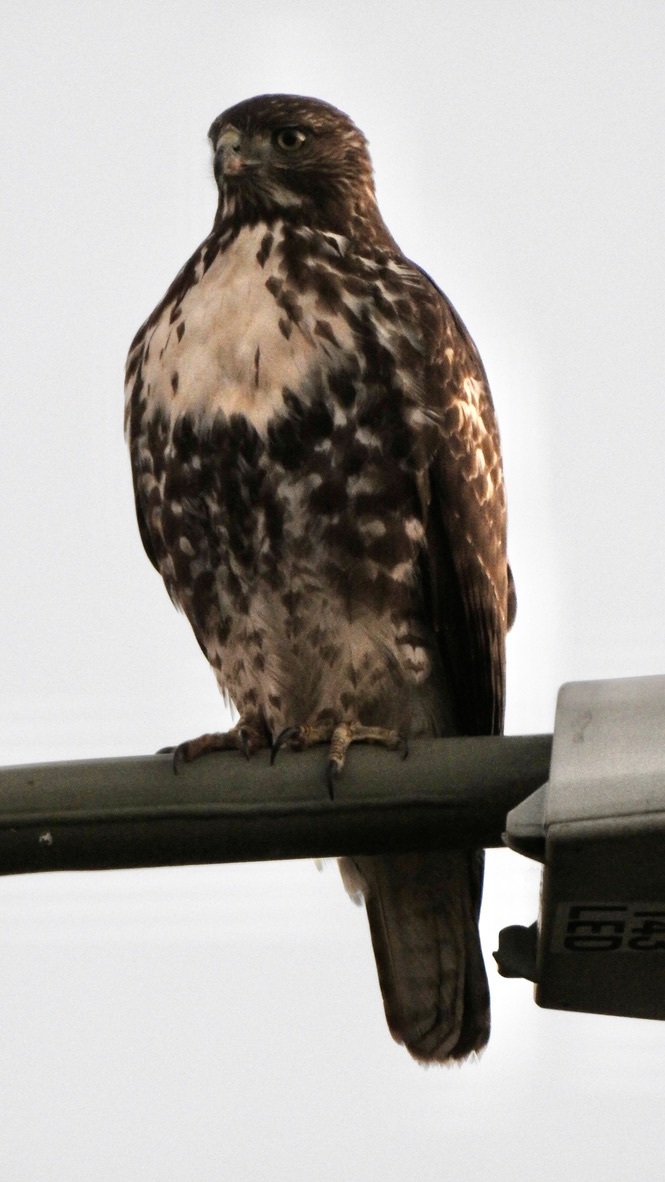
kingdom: Animalia
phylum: Chordata
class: Aves
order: Accipitriformes
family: Accipitridae
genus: Buteo
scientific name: Buteo jamaicensis
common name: Red-tailed hawk
